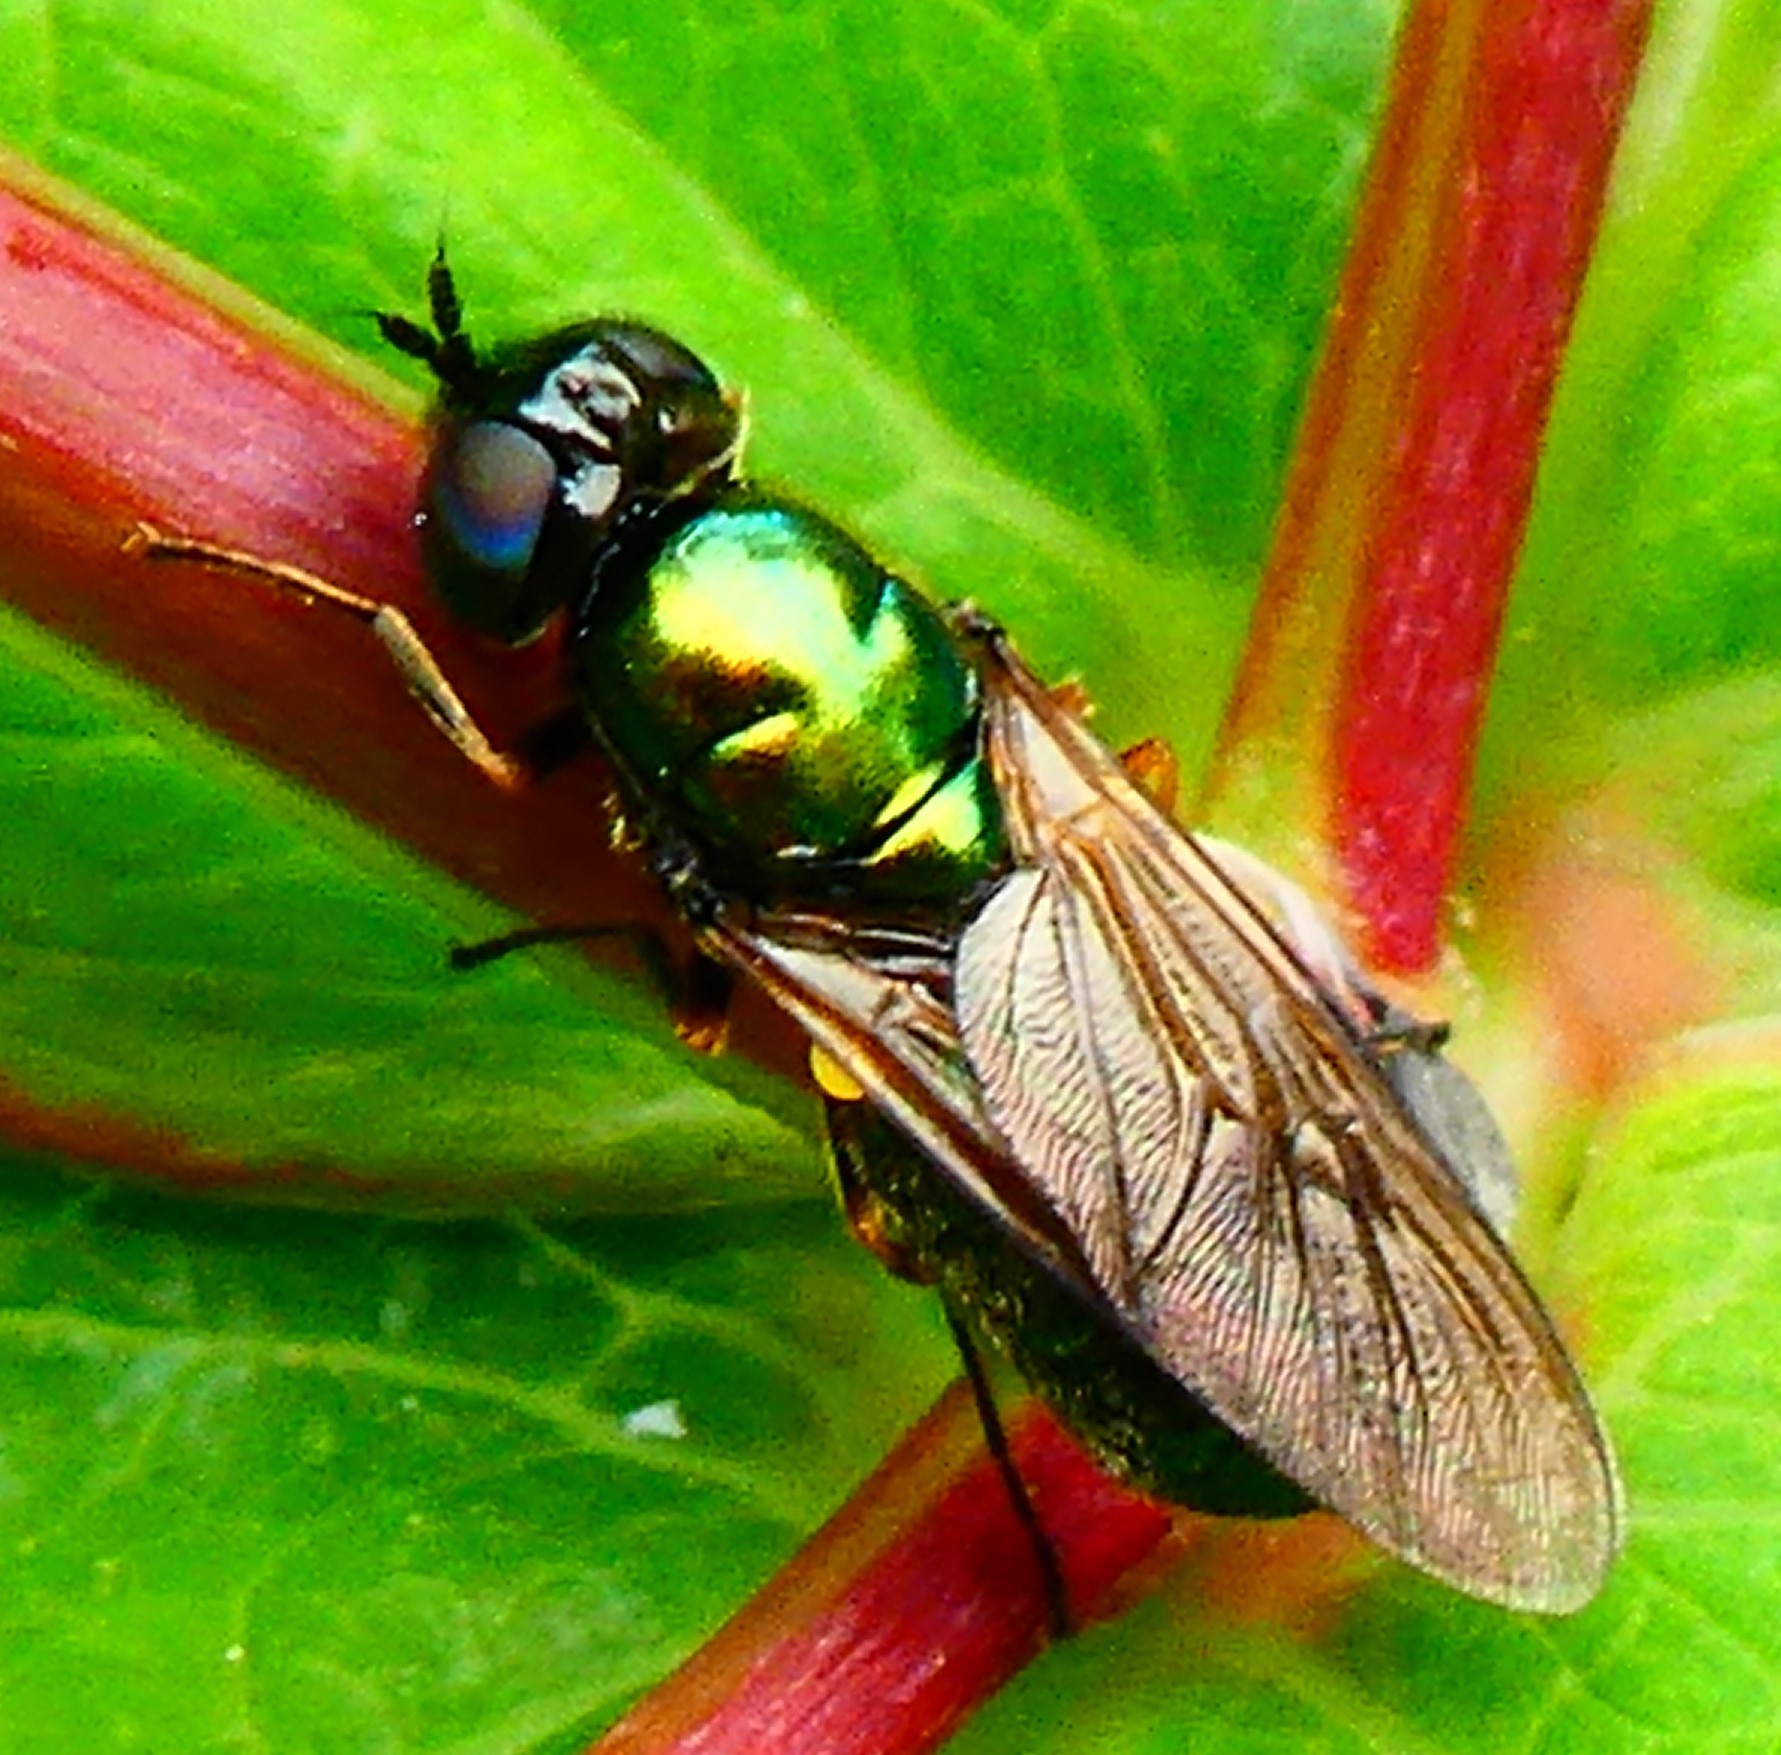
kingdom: Animalia
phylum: Arthropoda
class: Insecta
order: Diptera
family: Stratiomyidae
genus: Chloromyia
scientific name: Chloromyia formosa
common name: Soldier fly
